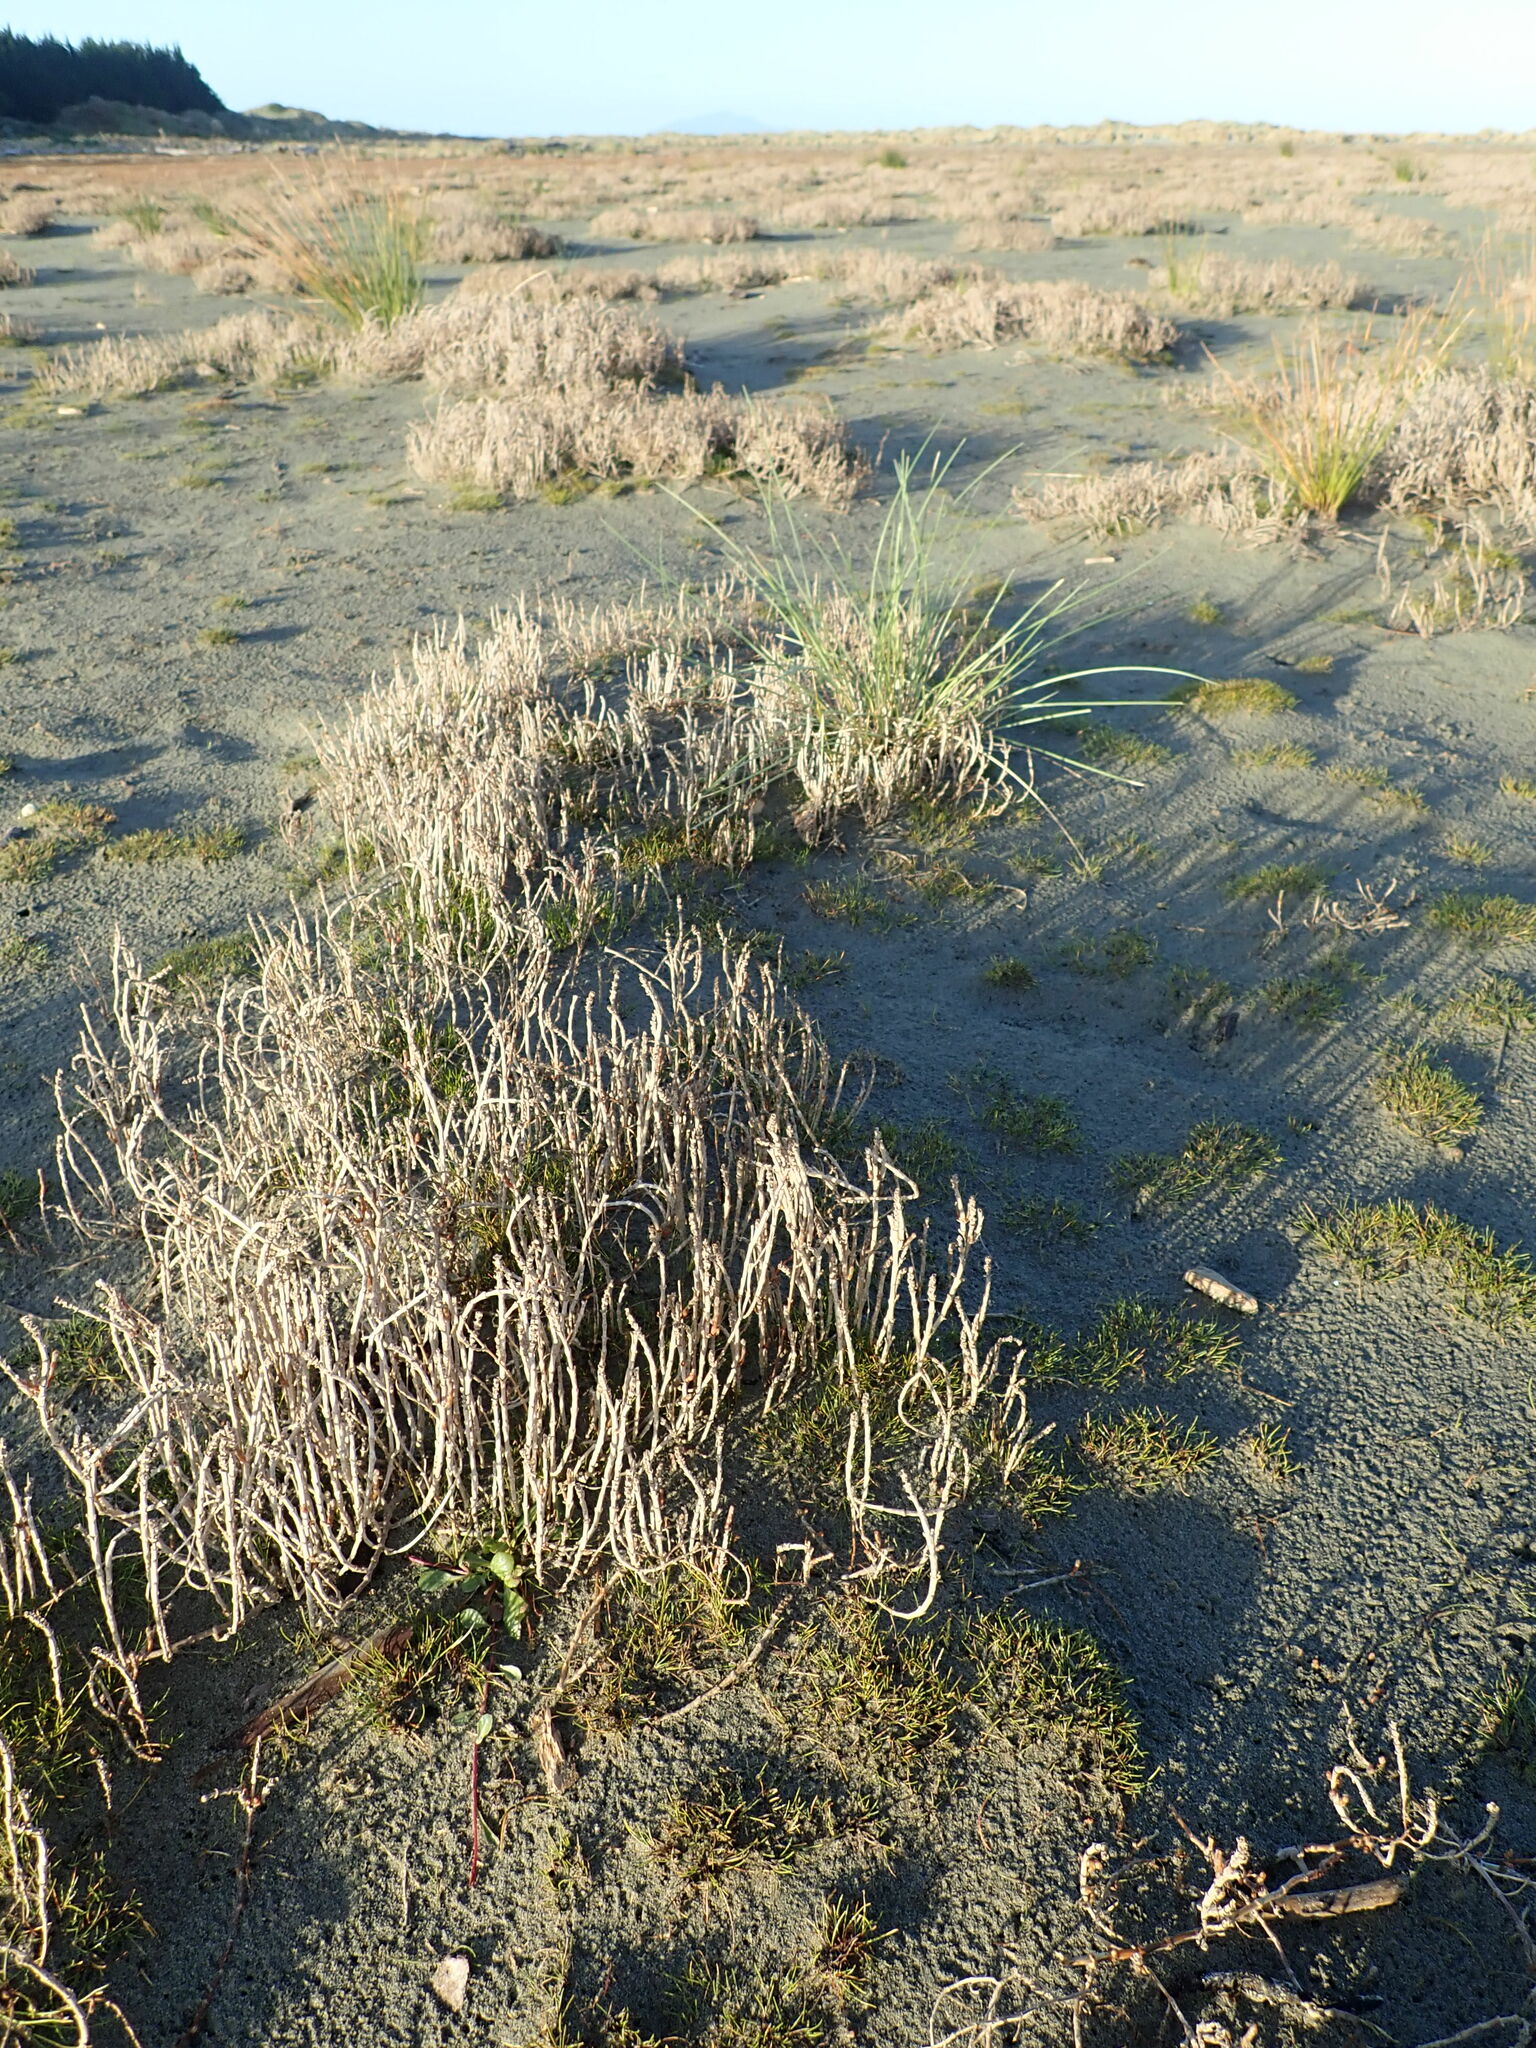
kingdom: Plantae
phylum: Tracheophyta
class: Magnoliopsida
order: Asterales
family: Campanulaceae
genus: Lobelia
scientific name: Lobelia anceps
